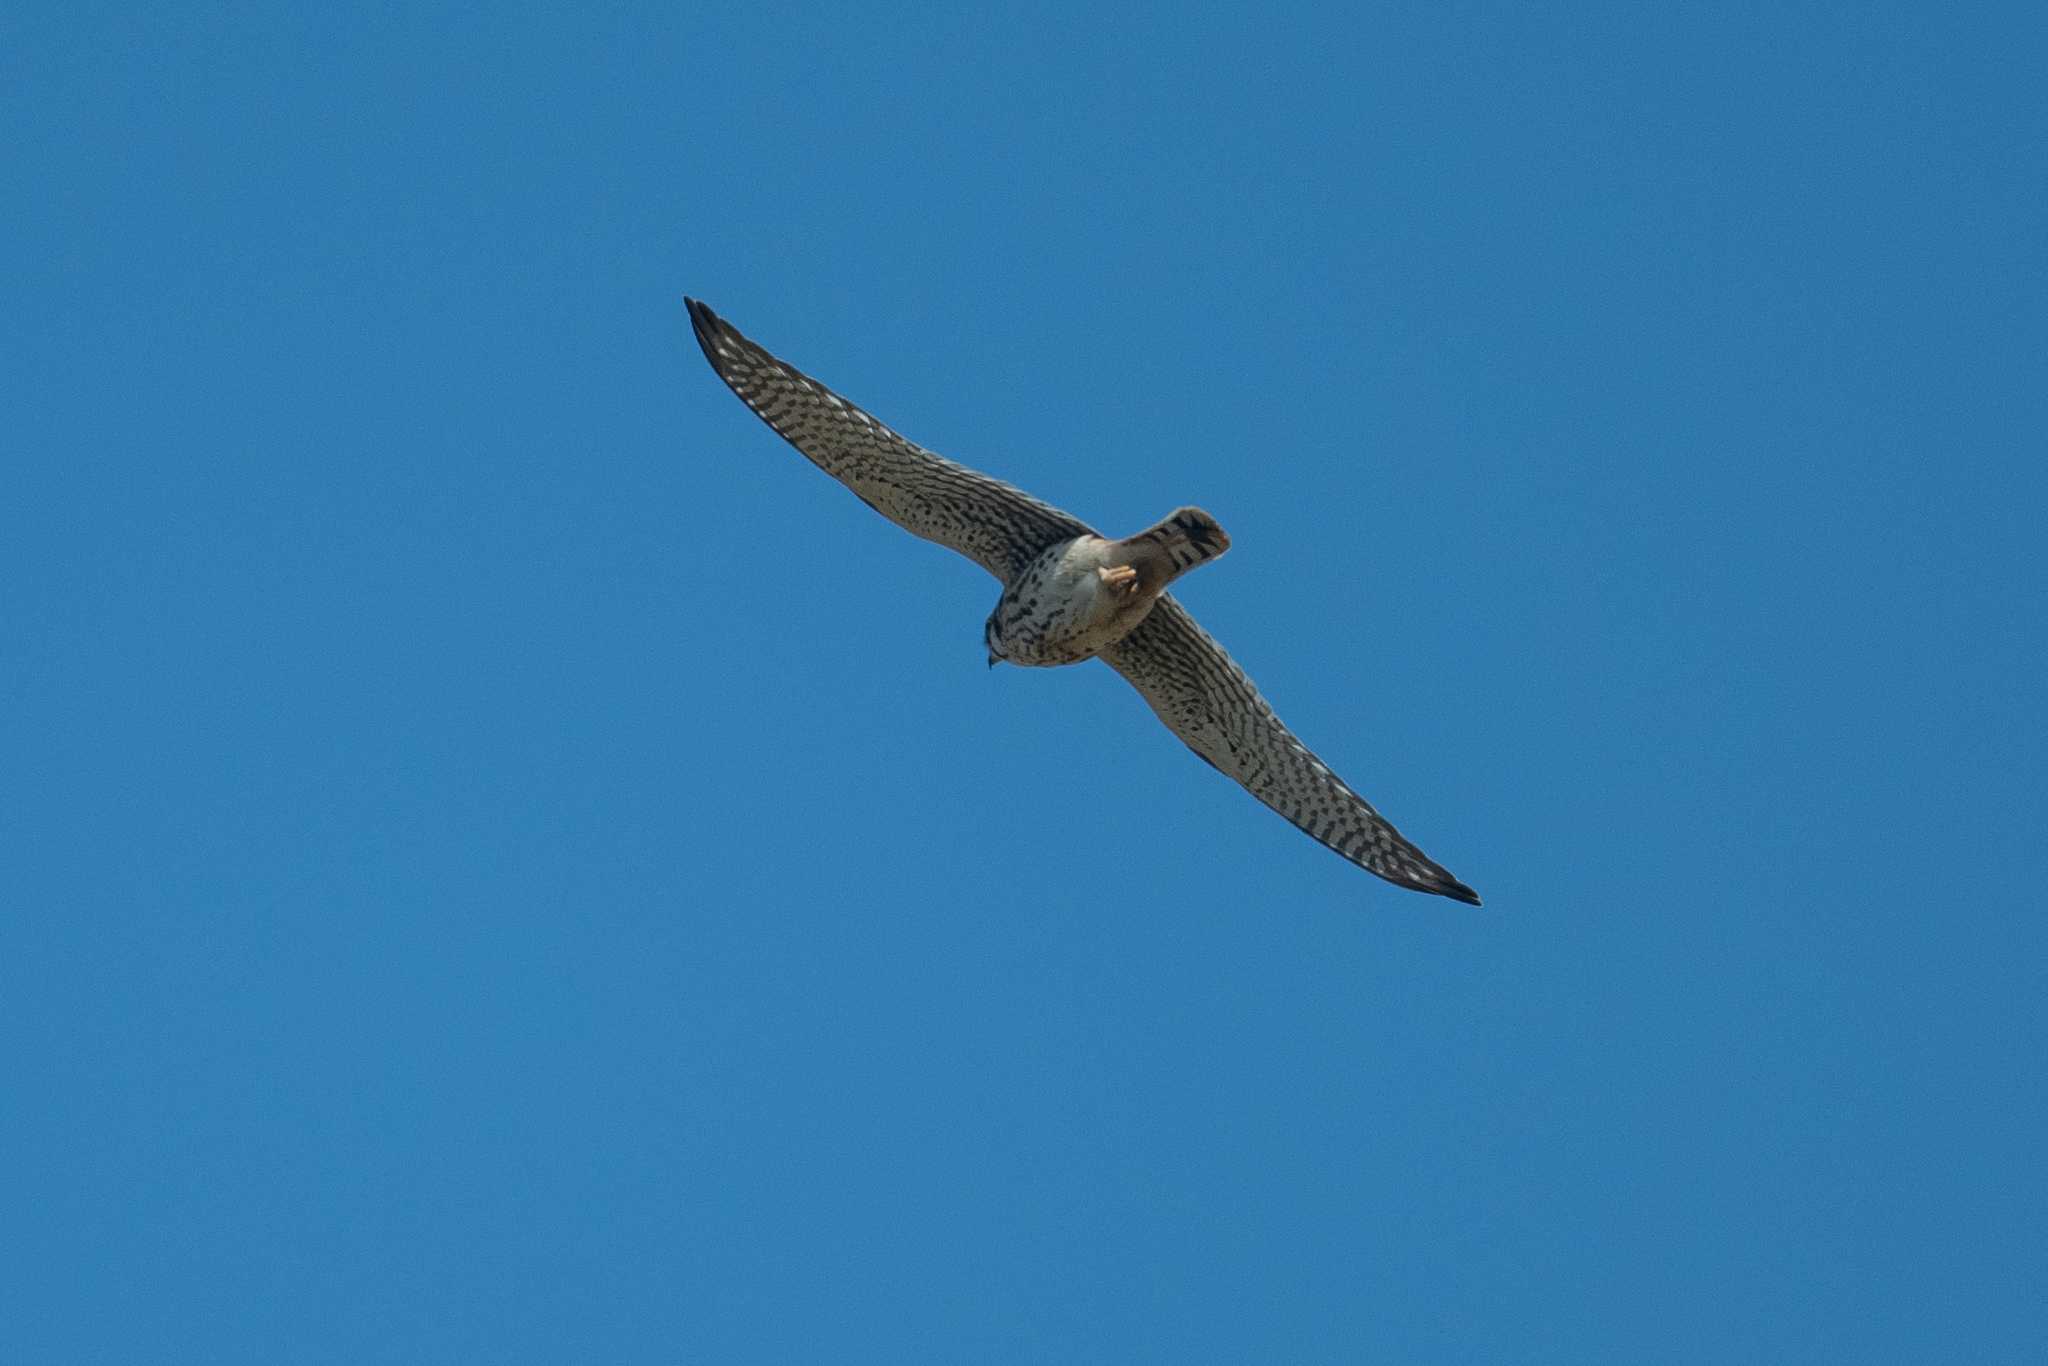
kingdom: Animalia
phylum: Chordata
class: Aves
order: Falconiformes
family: Falconidae
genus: Falco
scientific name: Falco sparverius
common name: American kestrel
